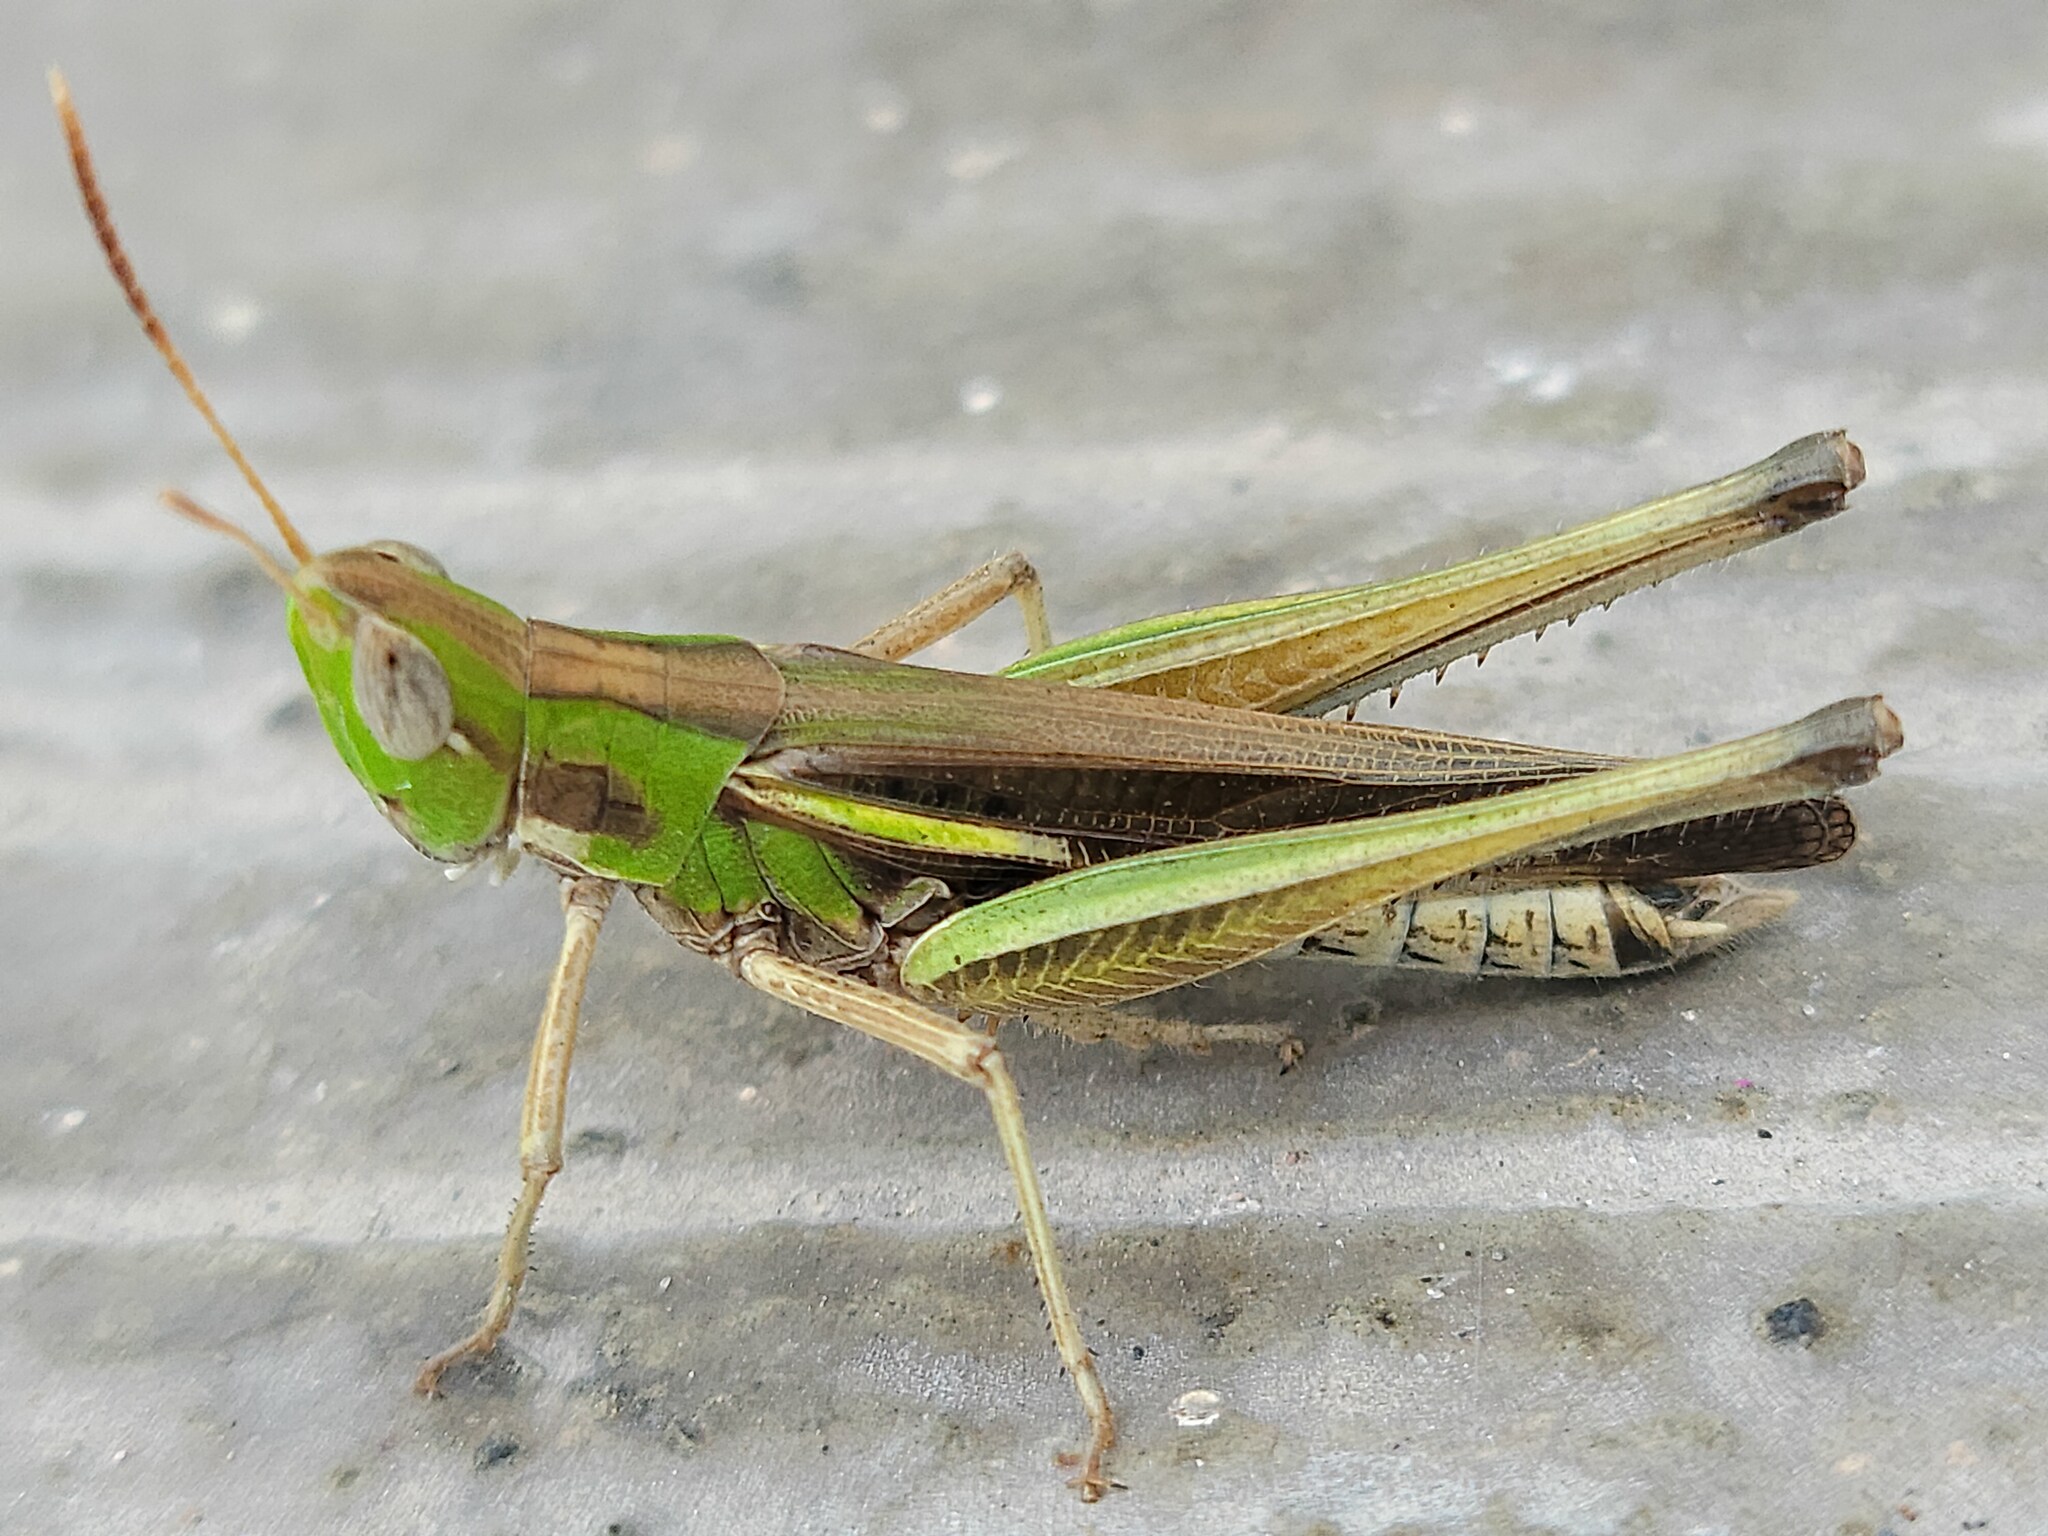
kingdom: Animalia
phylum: Arthropoda
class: Insecta
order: Orthoptera
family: Acrididae
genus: Syrbula
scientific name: Syrbula montezuma
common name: Montezuma's grasshopper
